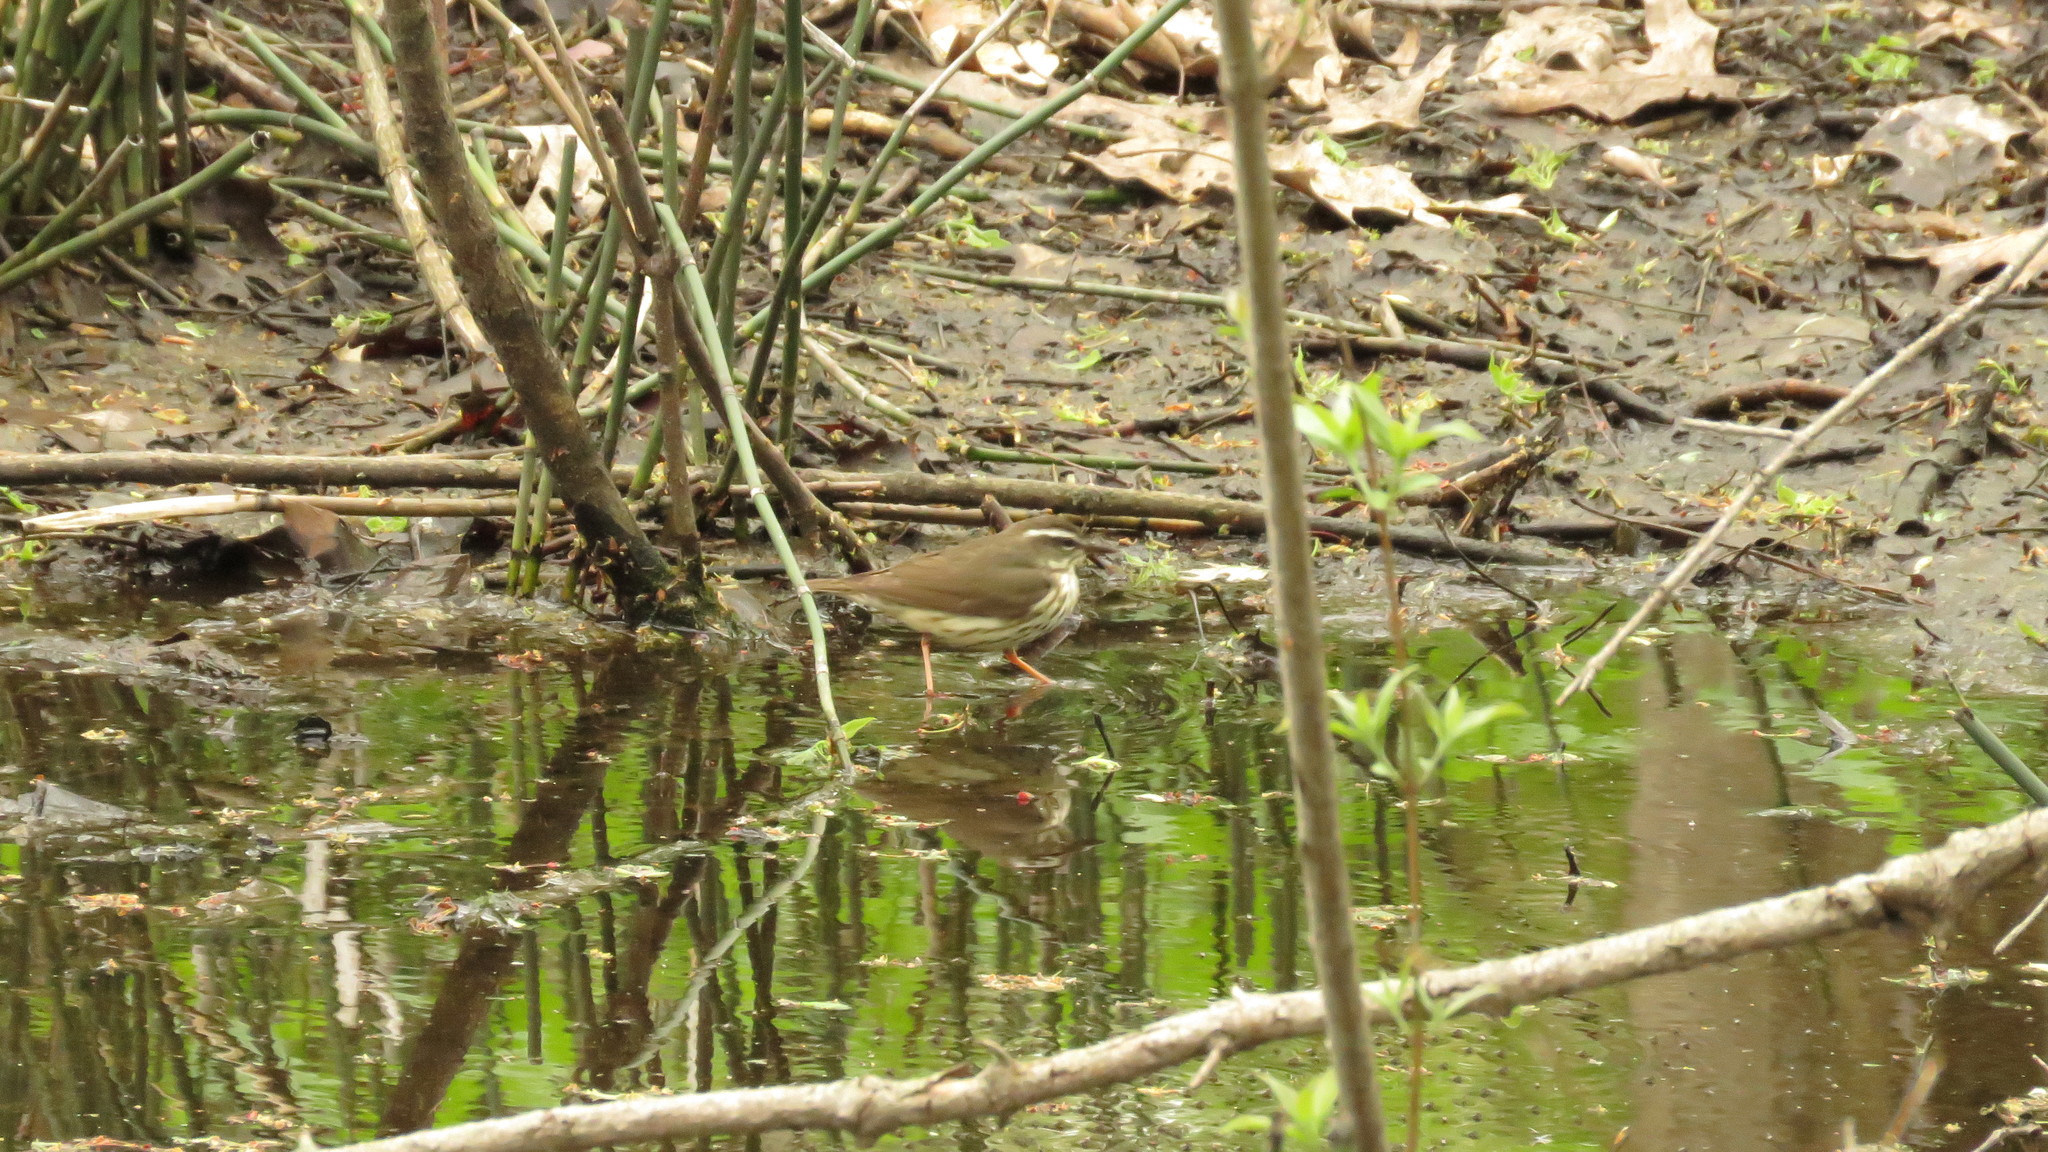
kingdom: Animalia
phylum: Chordata
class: Aves
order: Passeriformes
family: Parulidae
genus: Parkesia
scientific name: Parkesia motacilla
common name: Louisiana waterthrush
